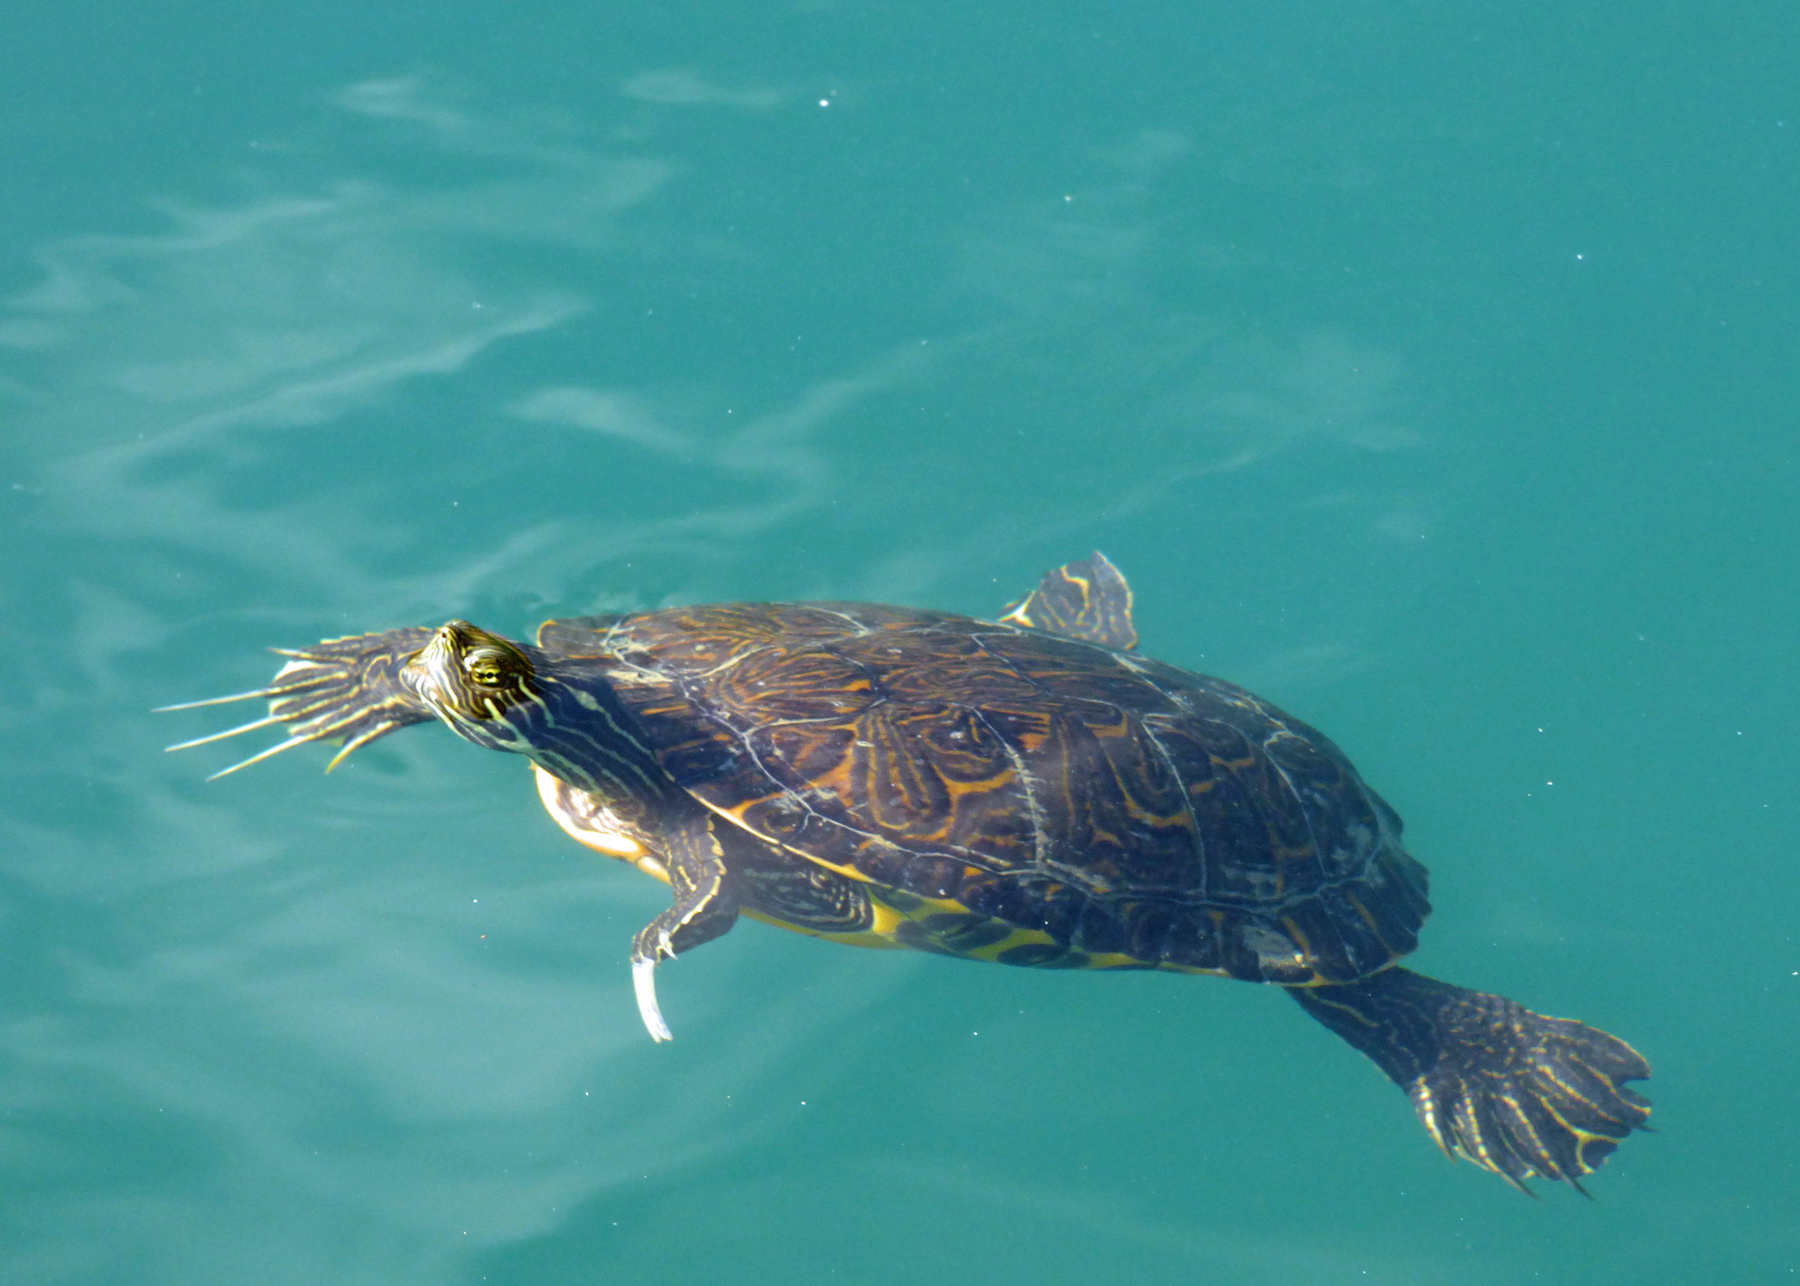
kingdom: Animalia
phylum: Chordata
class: Testudines
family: Emydidae
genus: Pseudemys
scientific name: Pseudemys concinna
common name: Eastern river cooter
